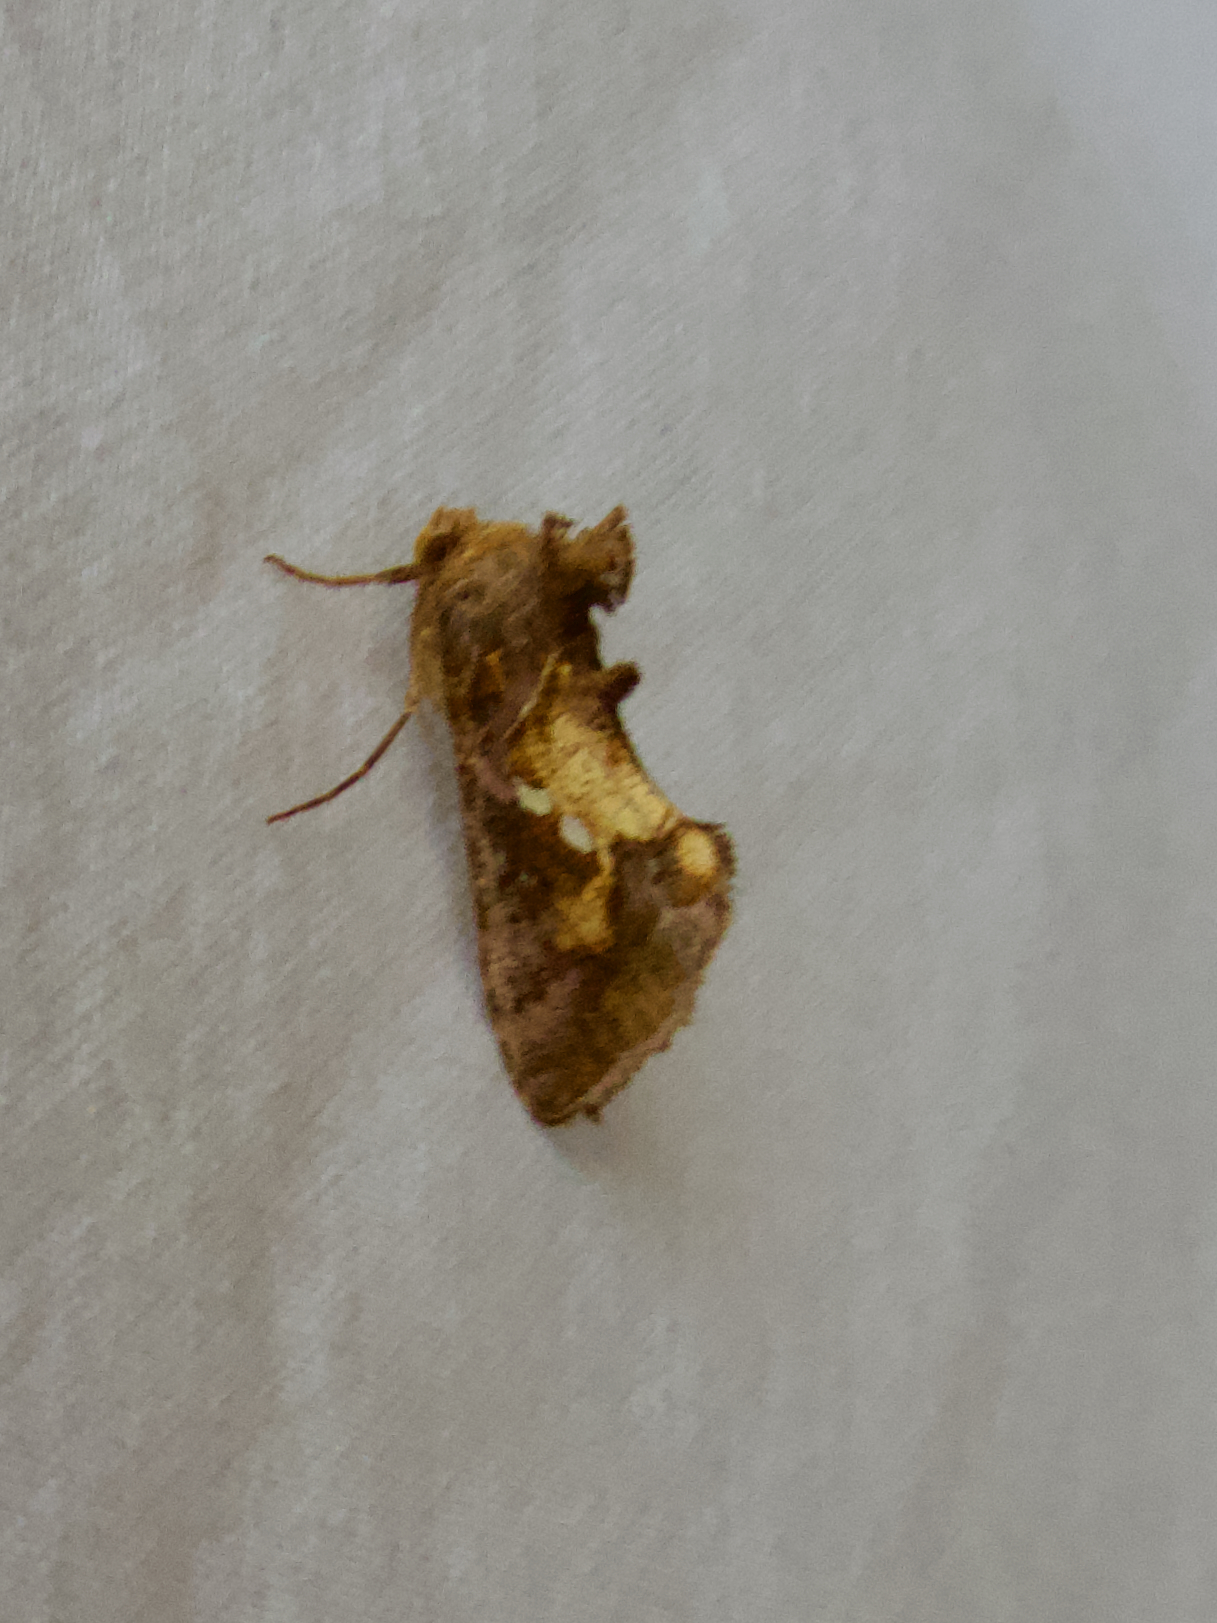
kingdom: Animalia
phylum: Arthropoda
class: Insecta
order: Lepidoptera
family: Noctuidae
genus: Chrysodeixis
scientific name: Chrysodeixis chalcites
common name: Golden twin-spot
